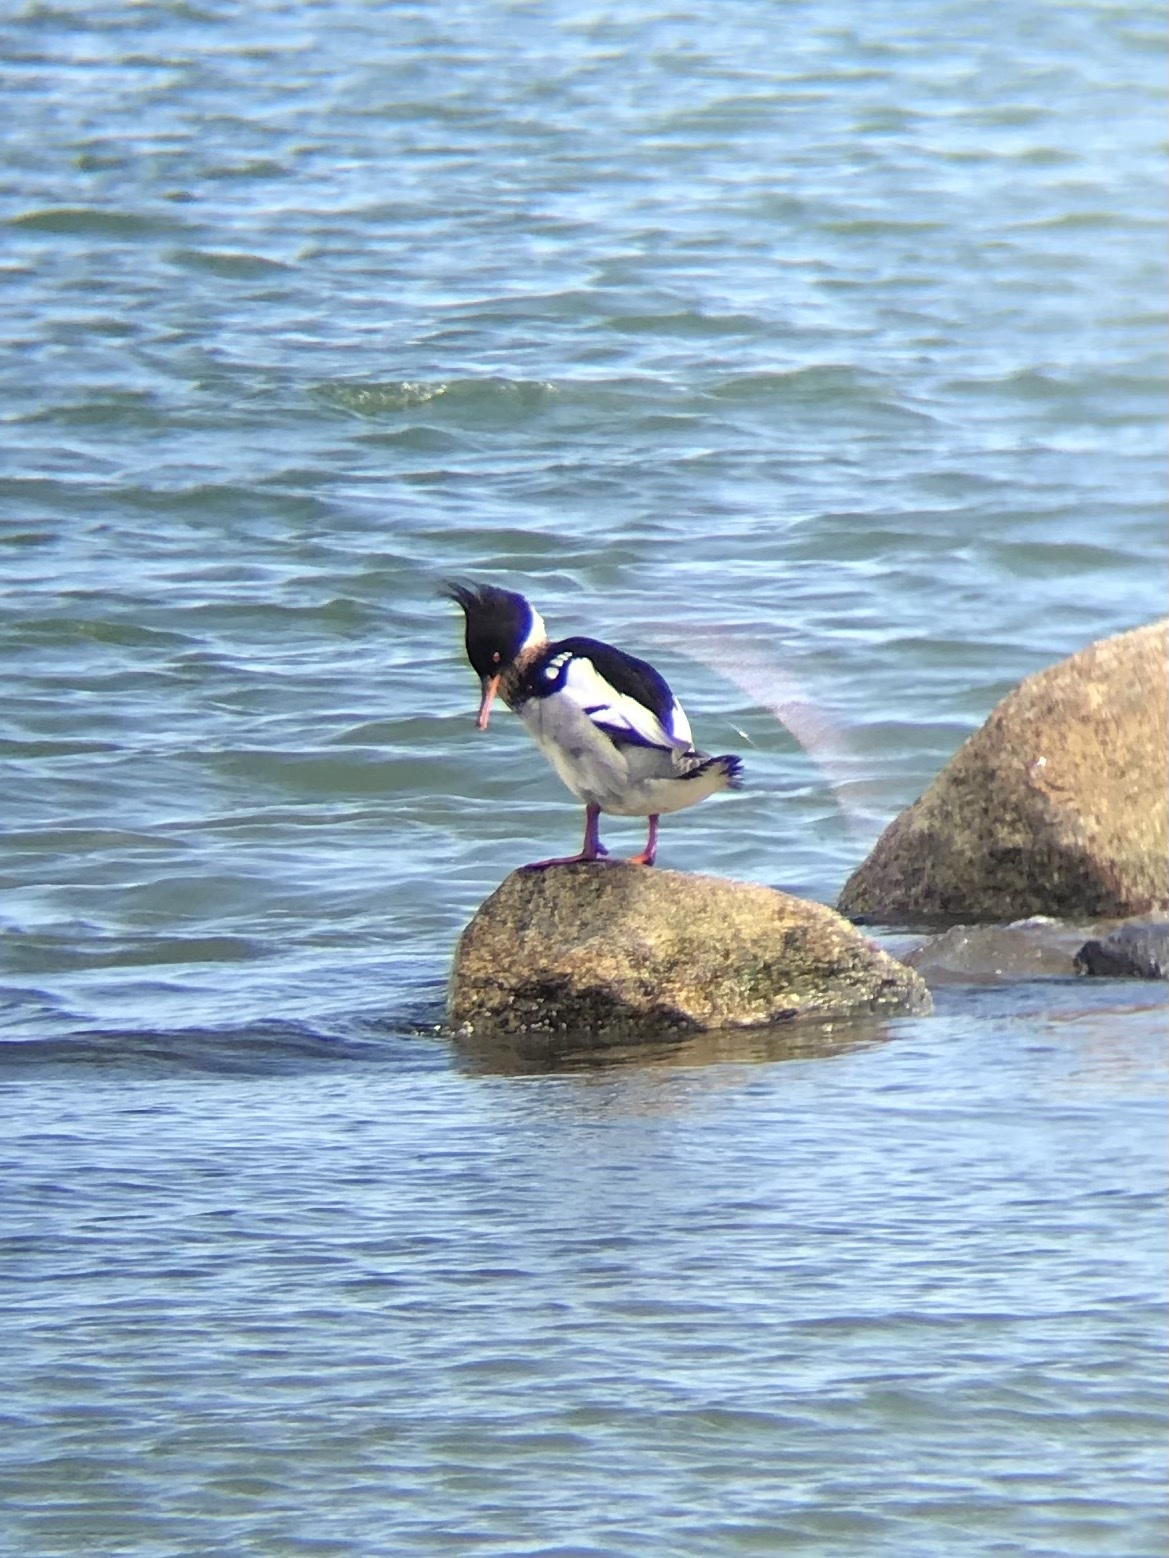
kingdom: Animalia
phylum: Chordata
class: Aves
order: Anseriformes
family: Anatidae
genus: Mergus
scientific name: Mergus serrator
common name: Red-breasted merganser
